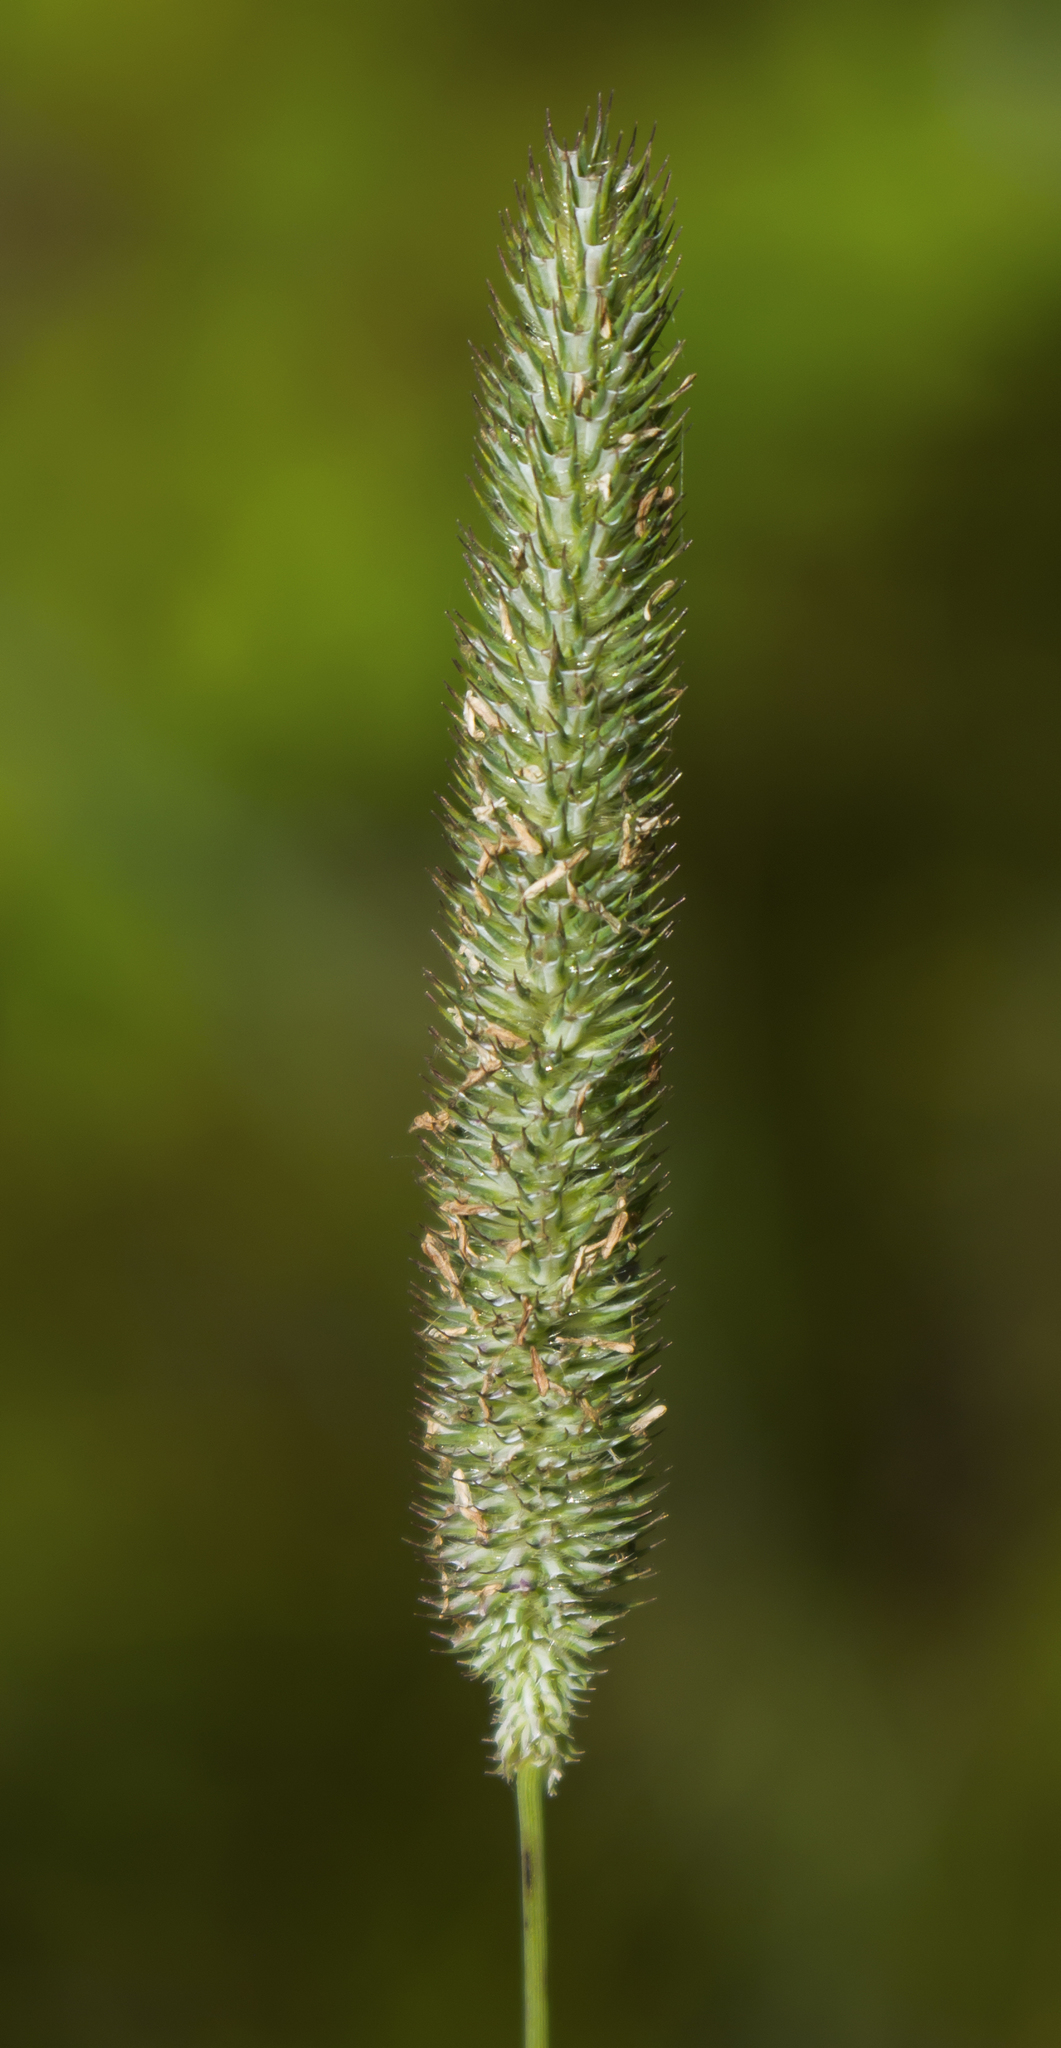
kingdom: Plantae
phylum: Tracheophyta
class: Liliopsida
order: Poales
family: Poaceae
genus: Phleum
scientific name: Phleum pratense
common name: Timothy grass
